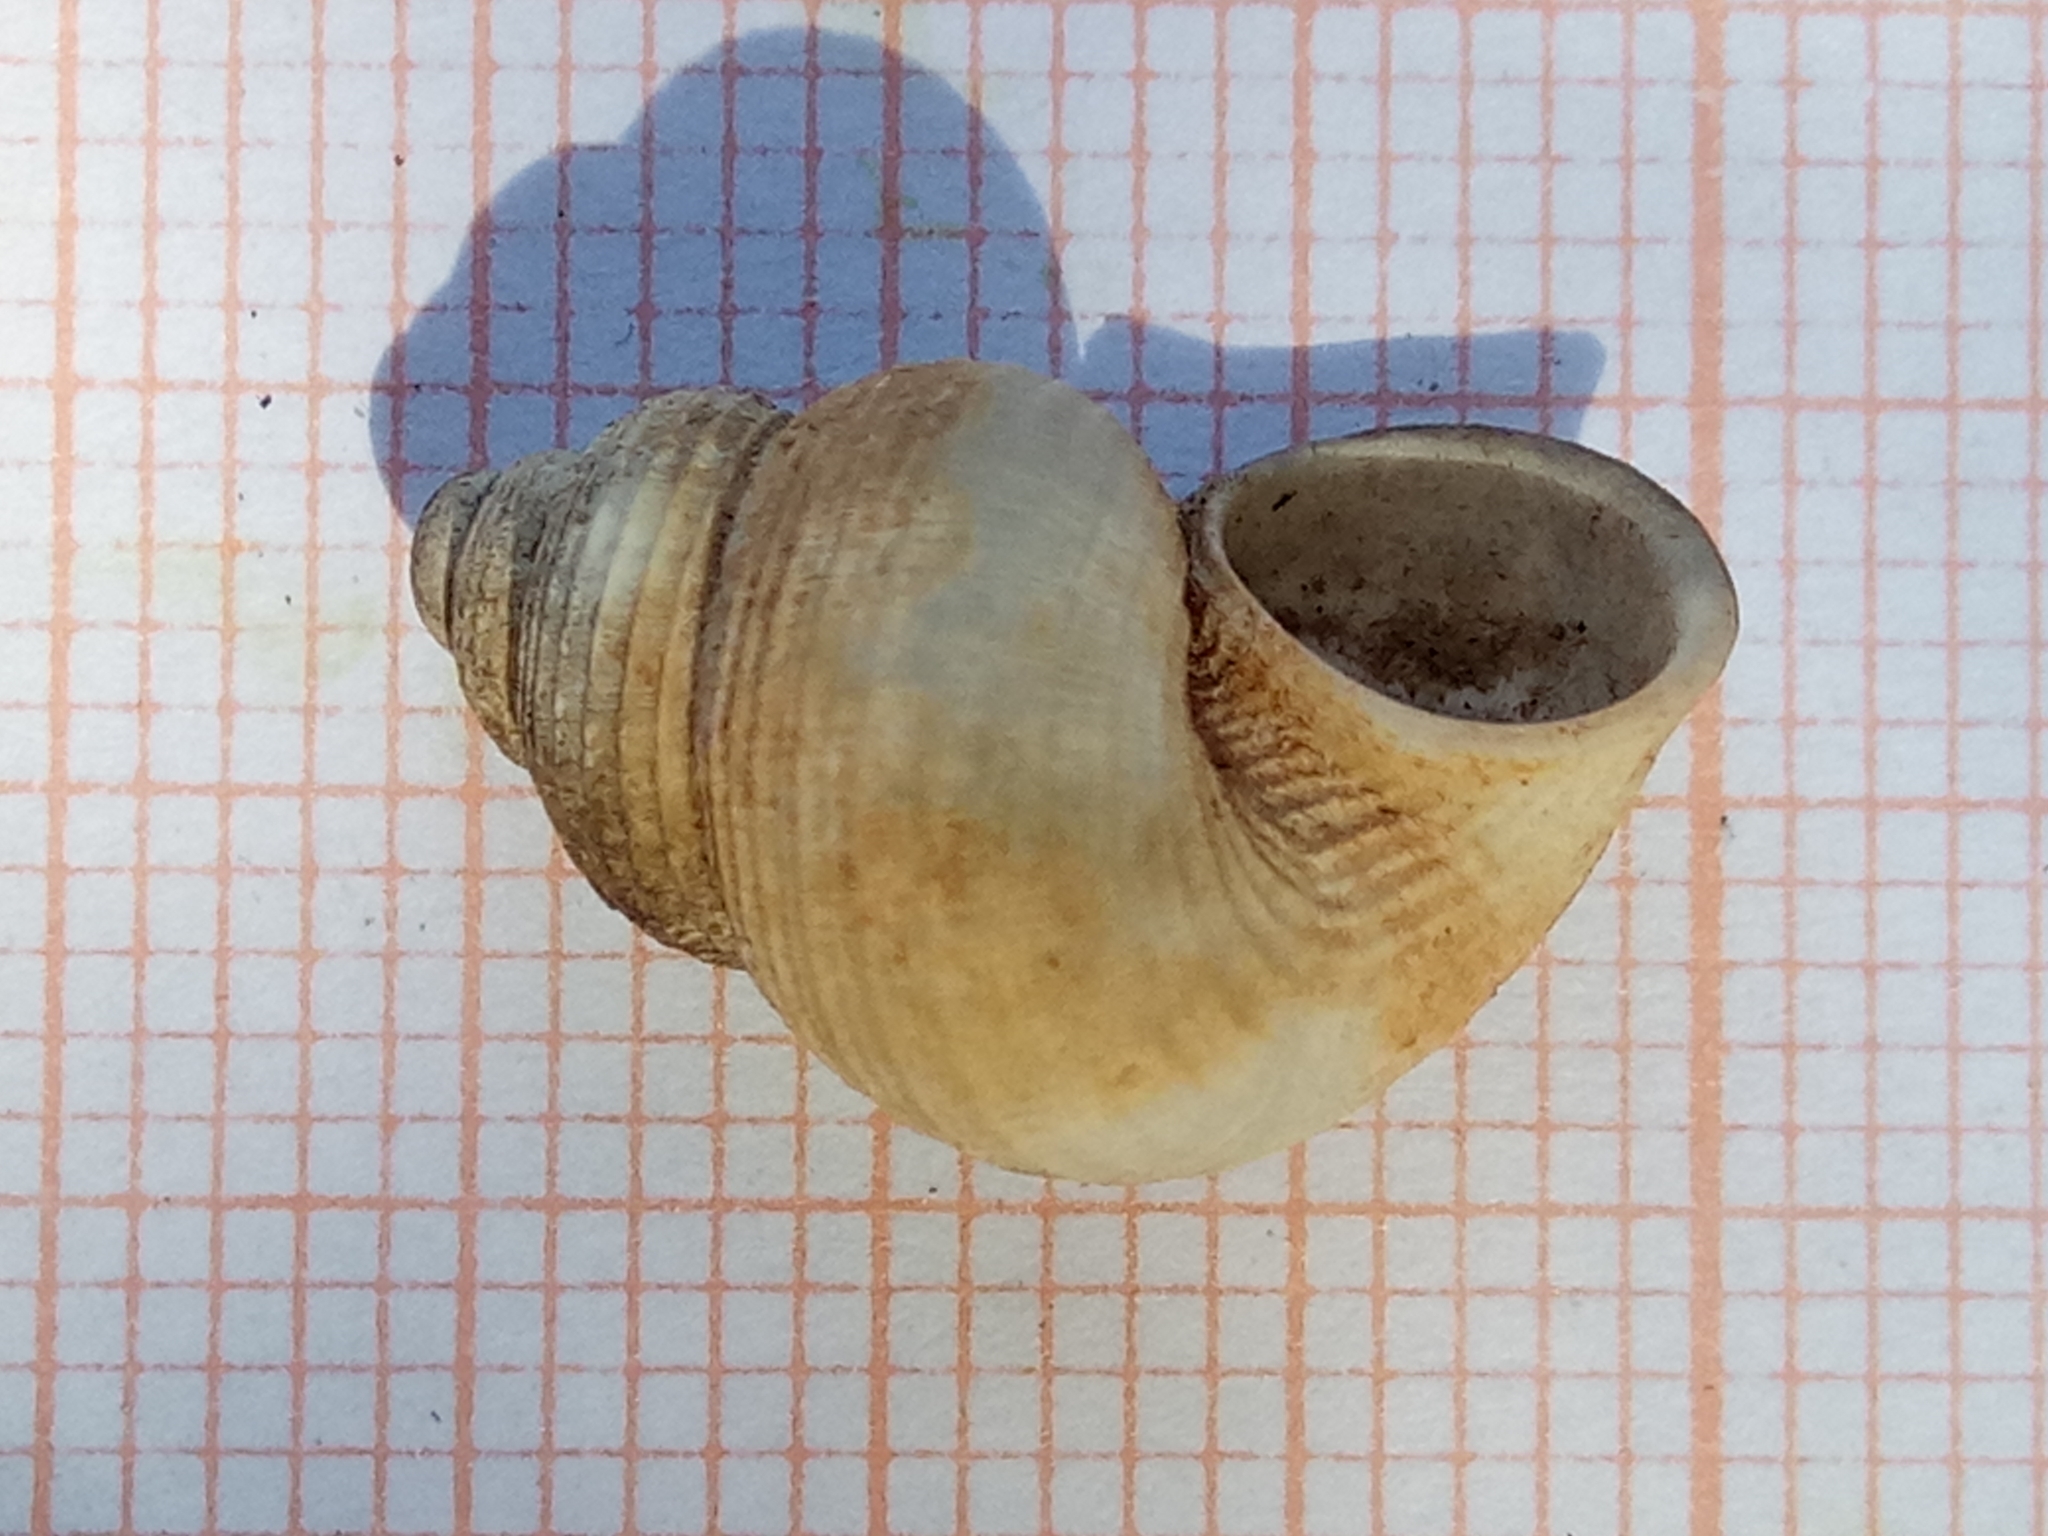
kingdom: Animalia
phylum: Mollusca
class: Gastropoda
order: Littorinimorpha
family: Pomatiidae
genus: Tudorella
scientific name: Tudorella sulcata
